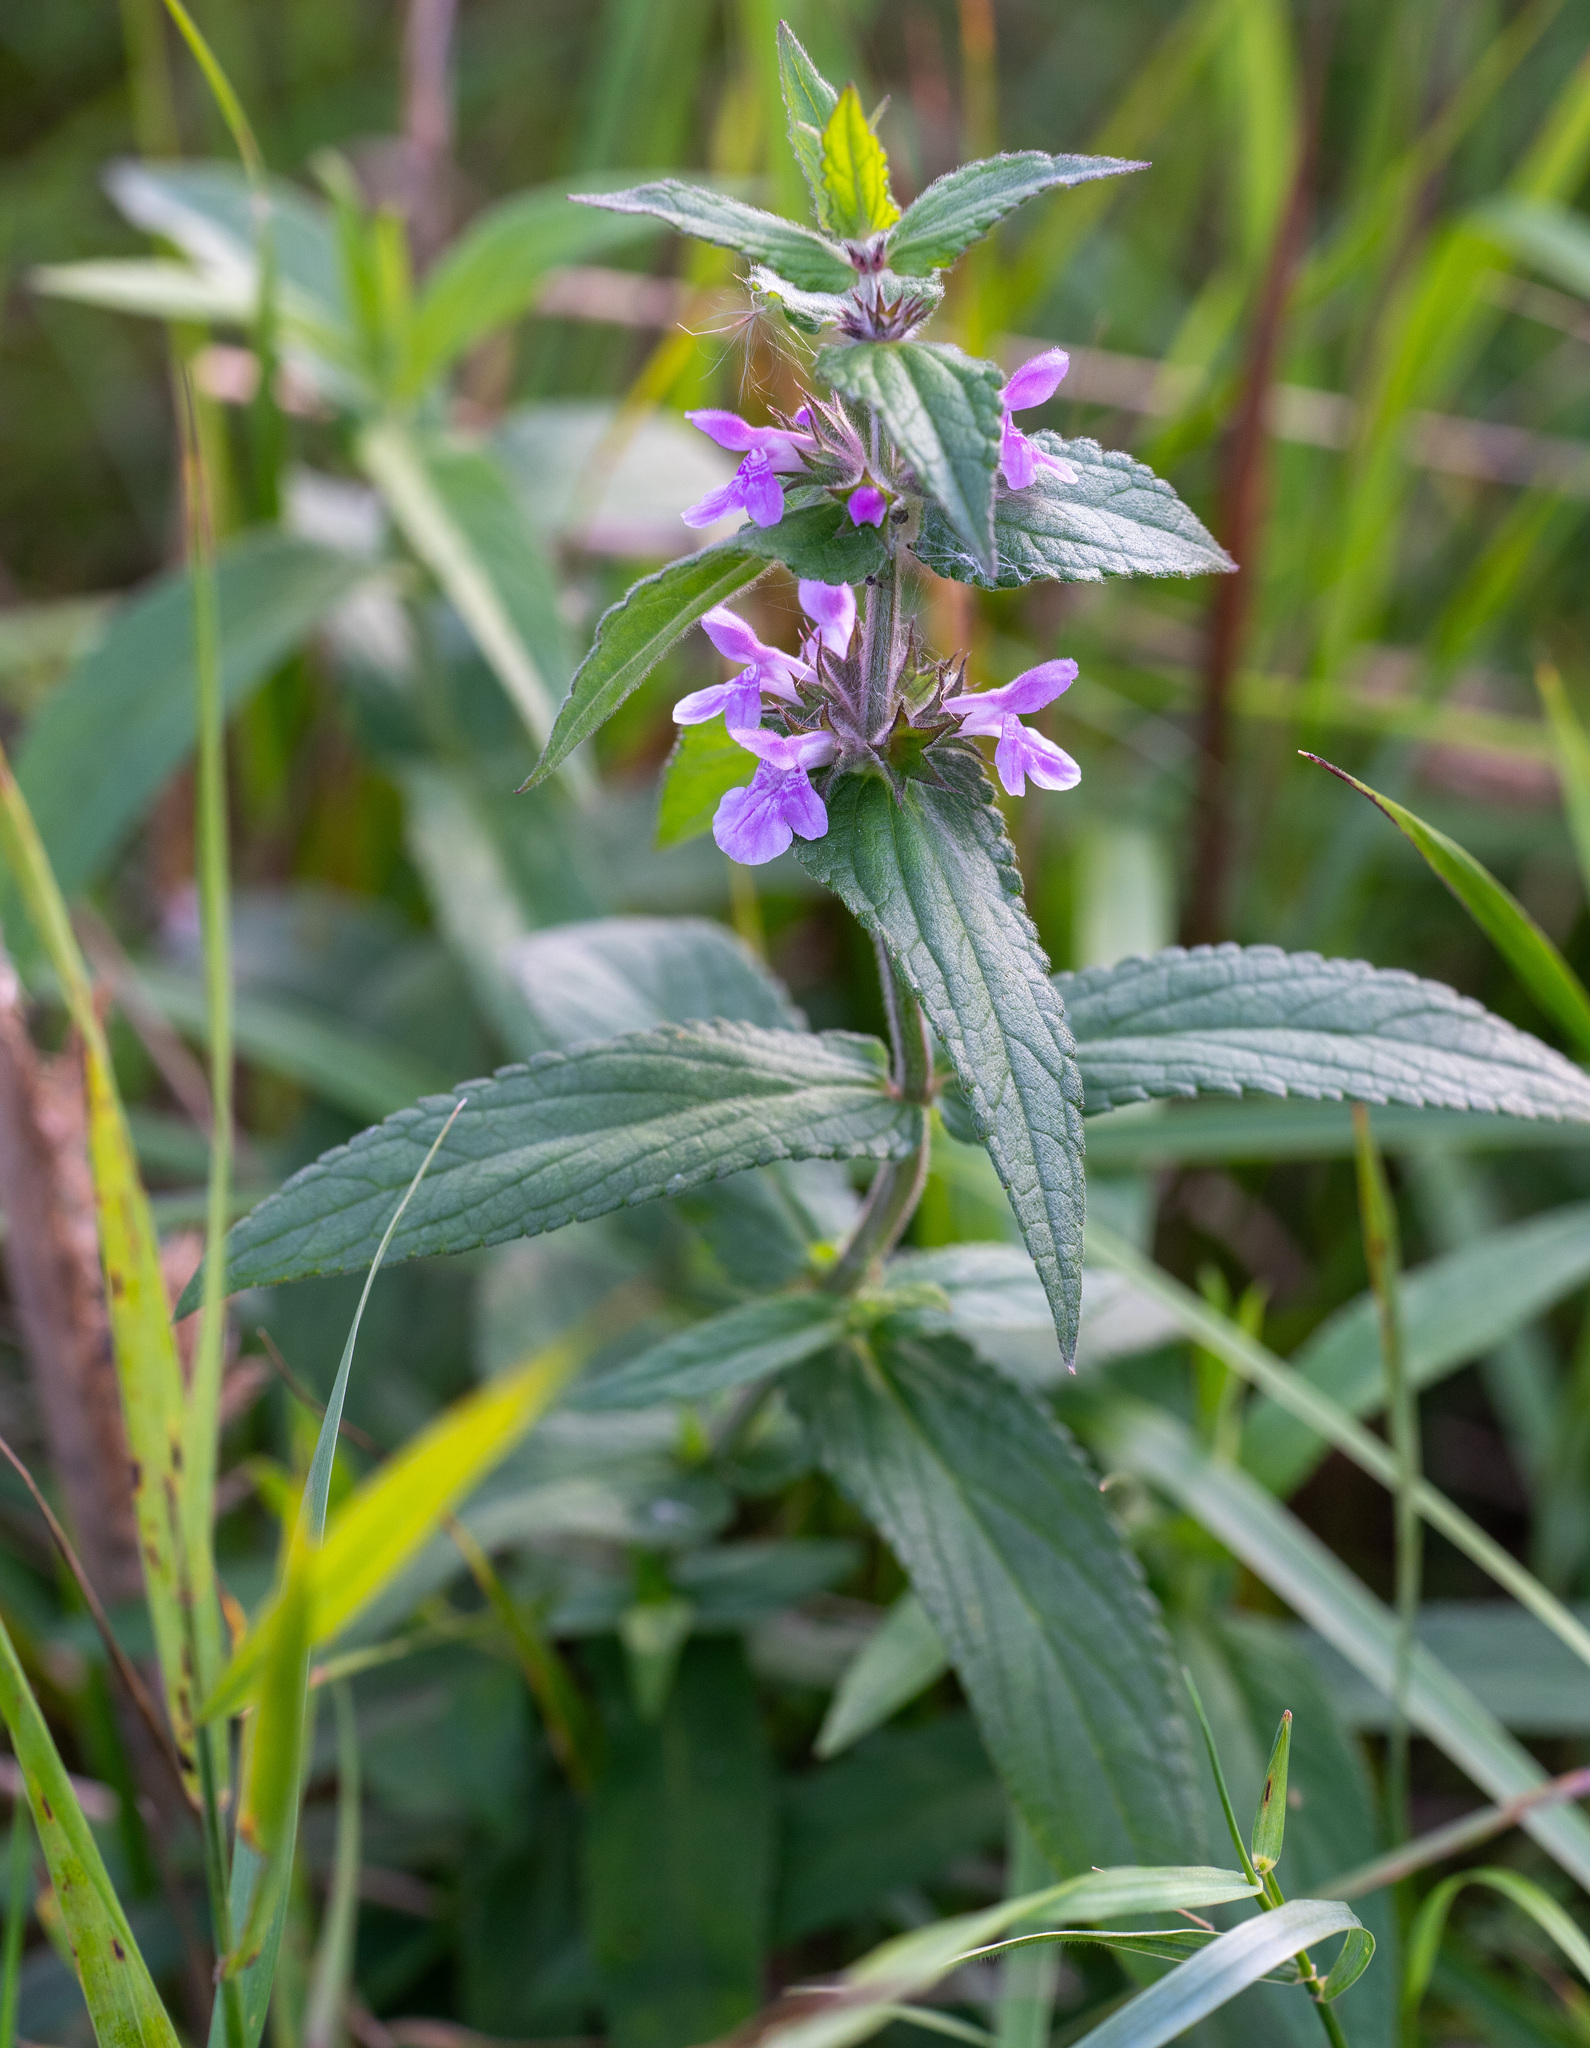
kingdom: Plantae
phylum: Tracheophyta
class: Magnoliopsida
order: Lamiales
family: Lamiaceae
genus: Stachys
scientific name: Stachys palustris
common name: Marsh woundwort
